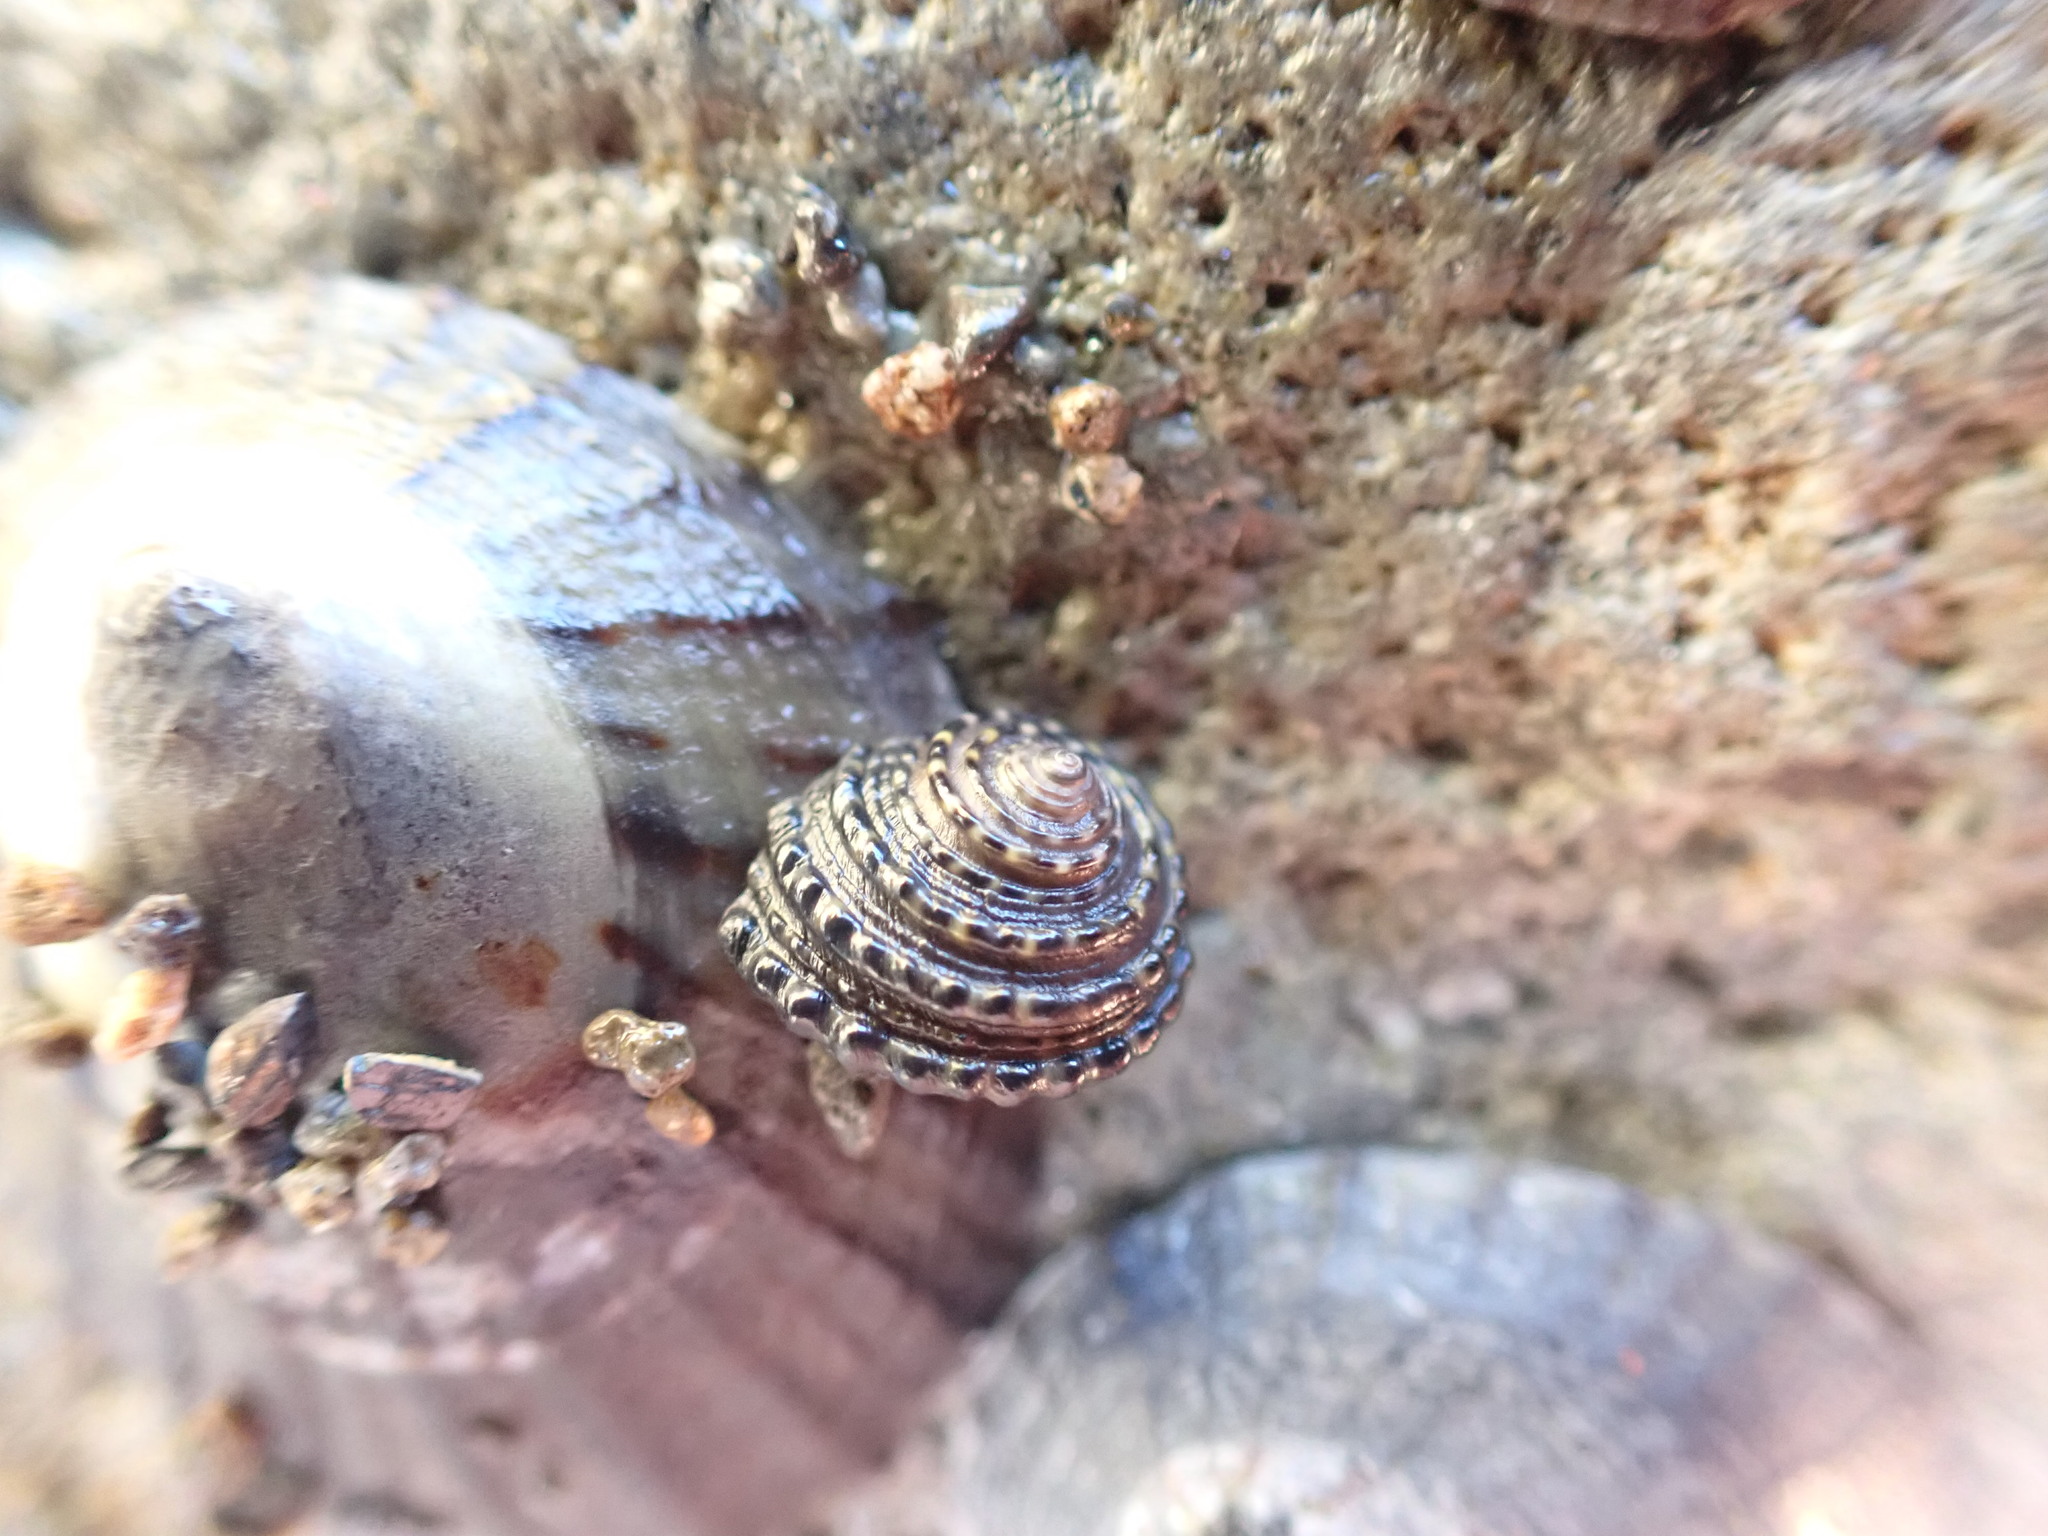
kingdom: Animalia
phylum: Mollusca
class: Gastropoda
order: Trochida
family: Trochidae
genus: Diloma
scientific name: Diloma bicanaliculatum
